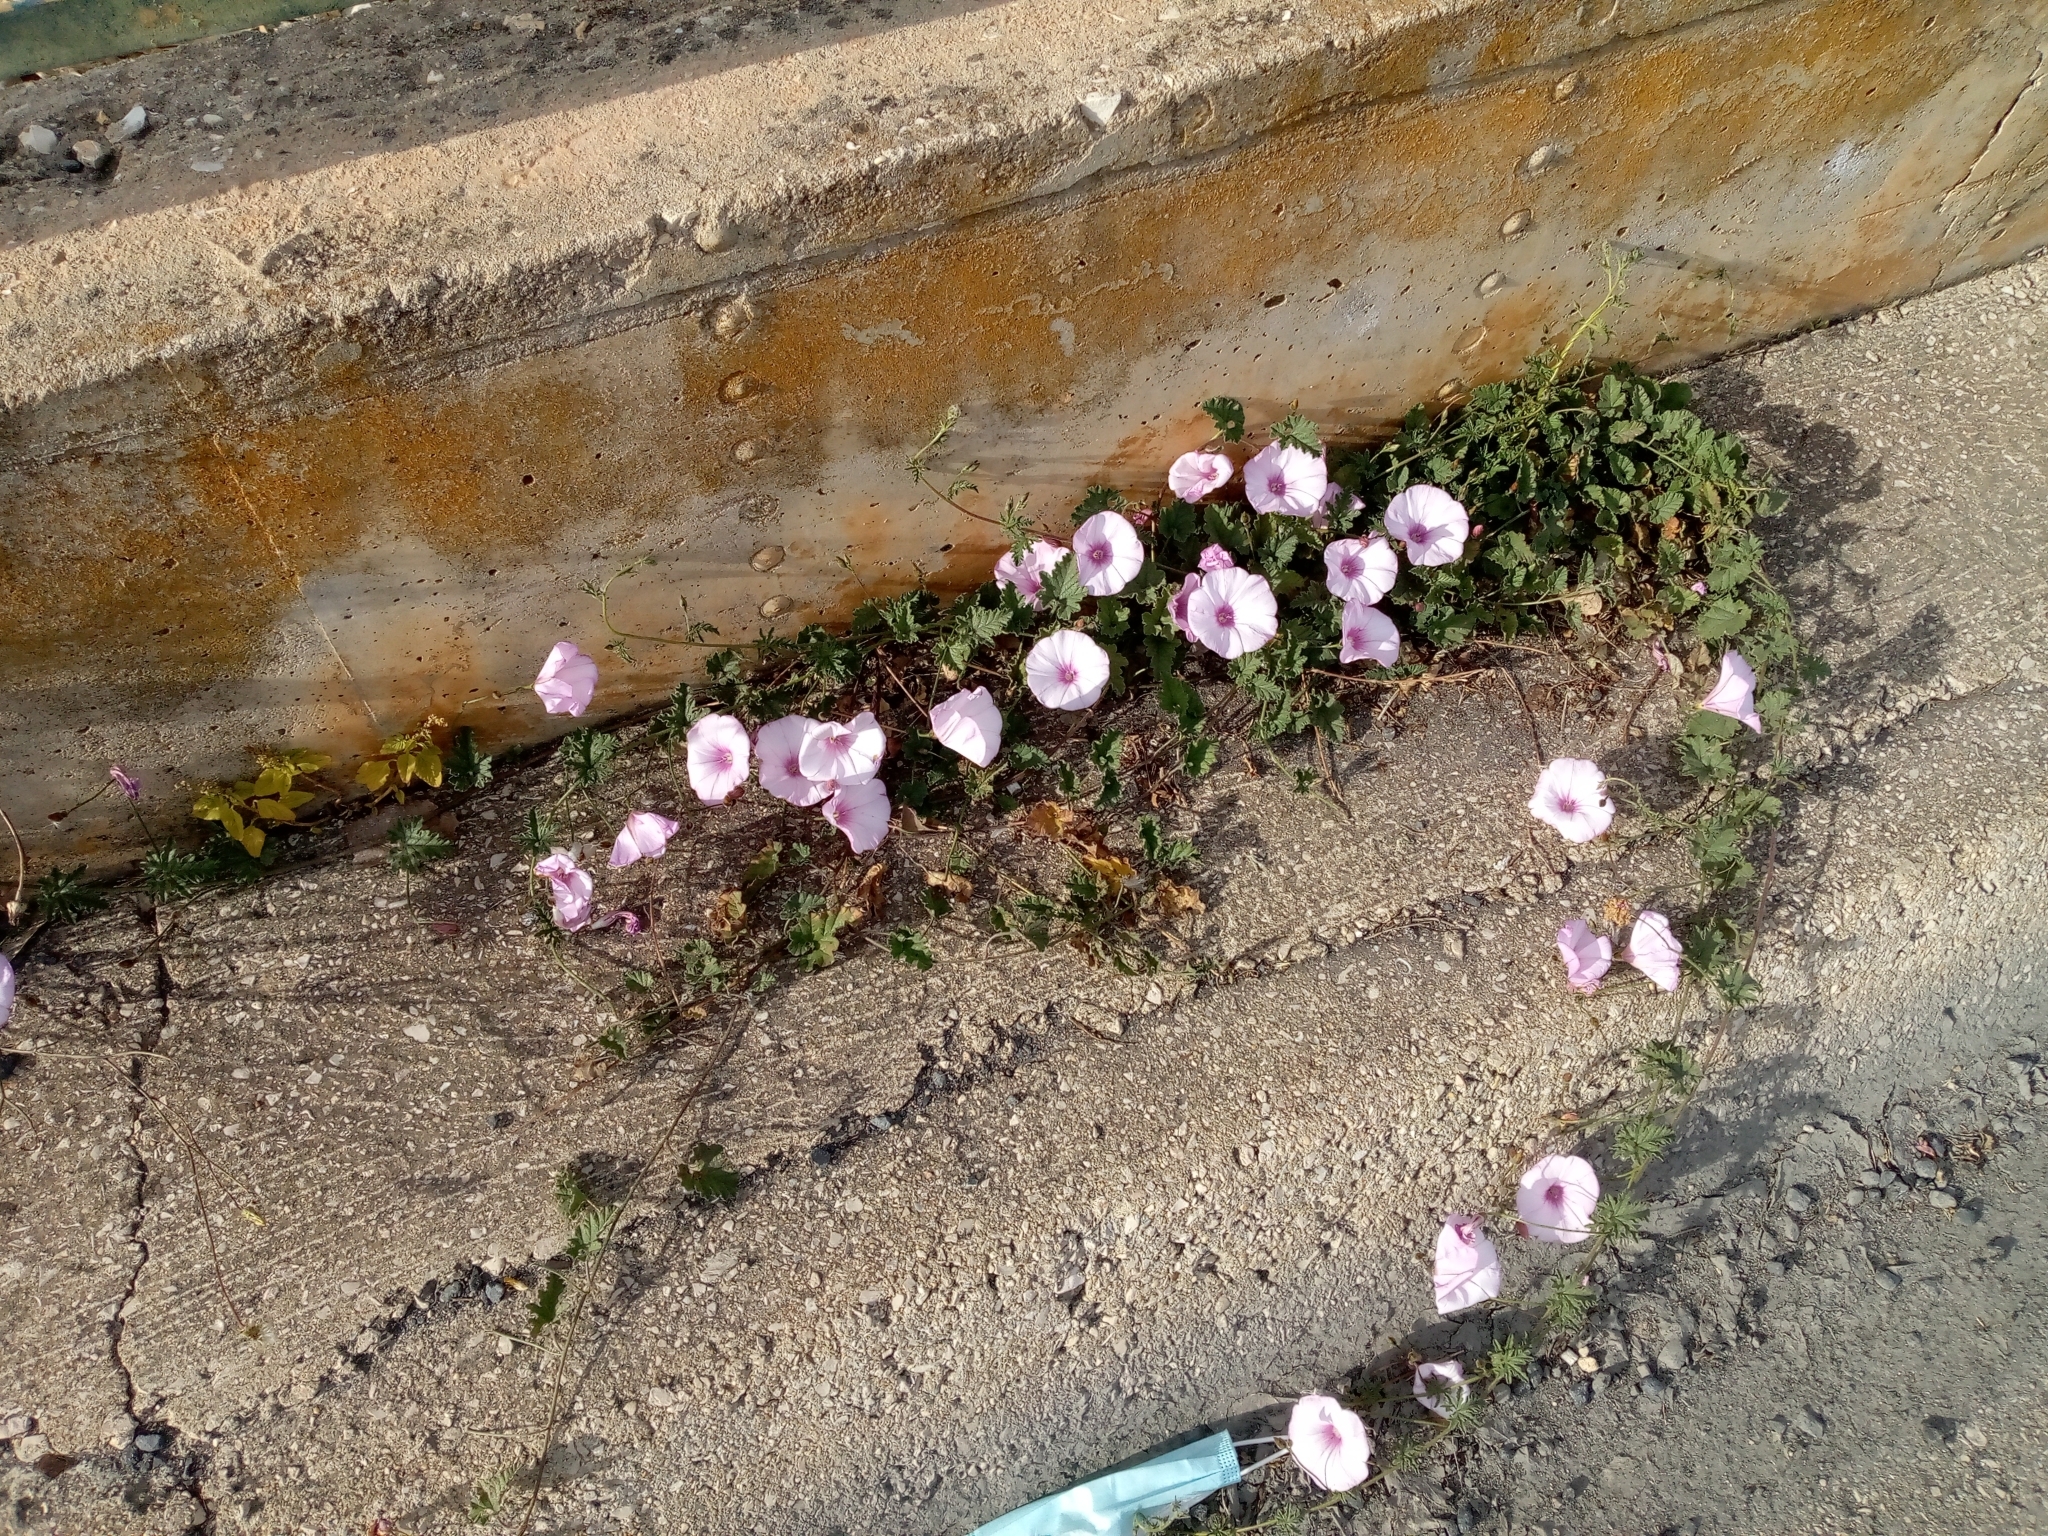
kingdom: Plantae
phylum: Tracheophyta
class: Magnoliopsida
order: Solanales
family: Convolvulaceae
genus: Convolvulus
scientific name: Convolvulus althaeoides
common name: Mallow bindweed
